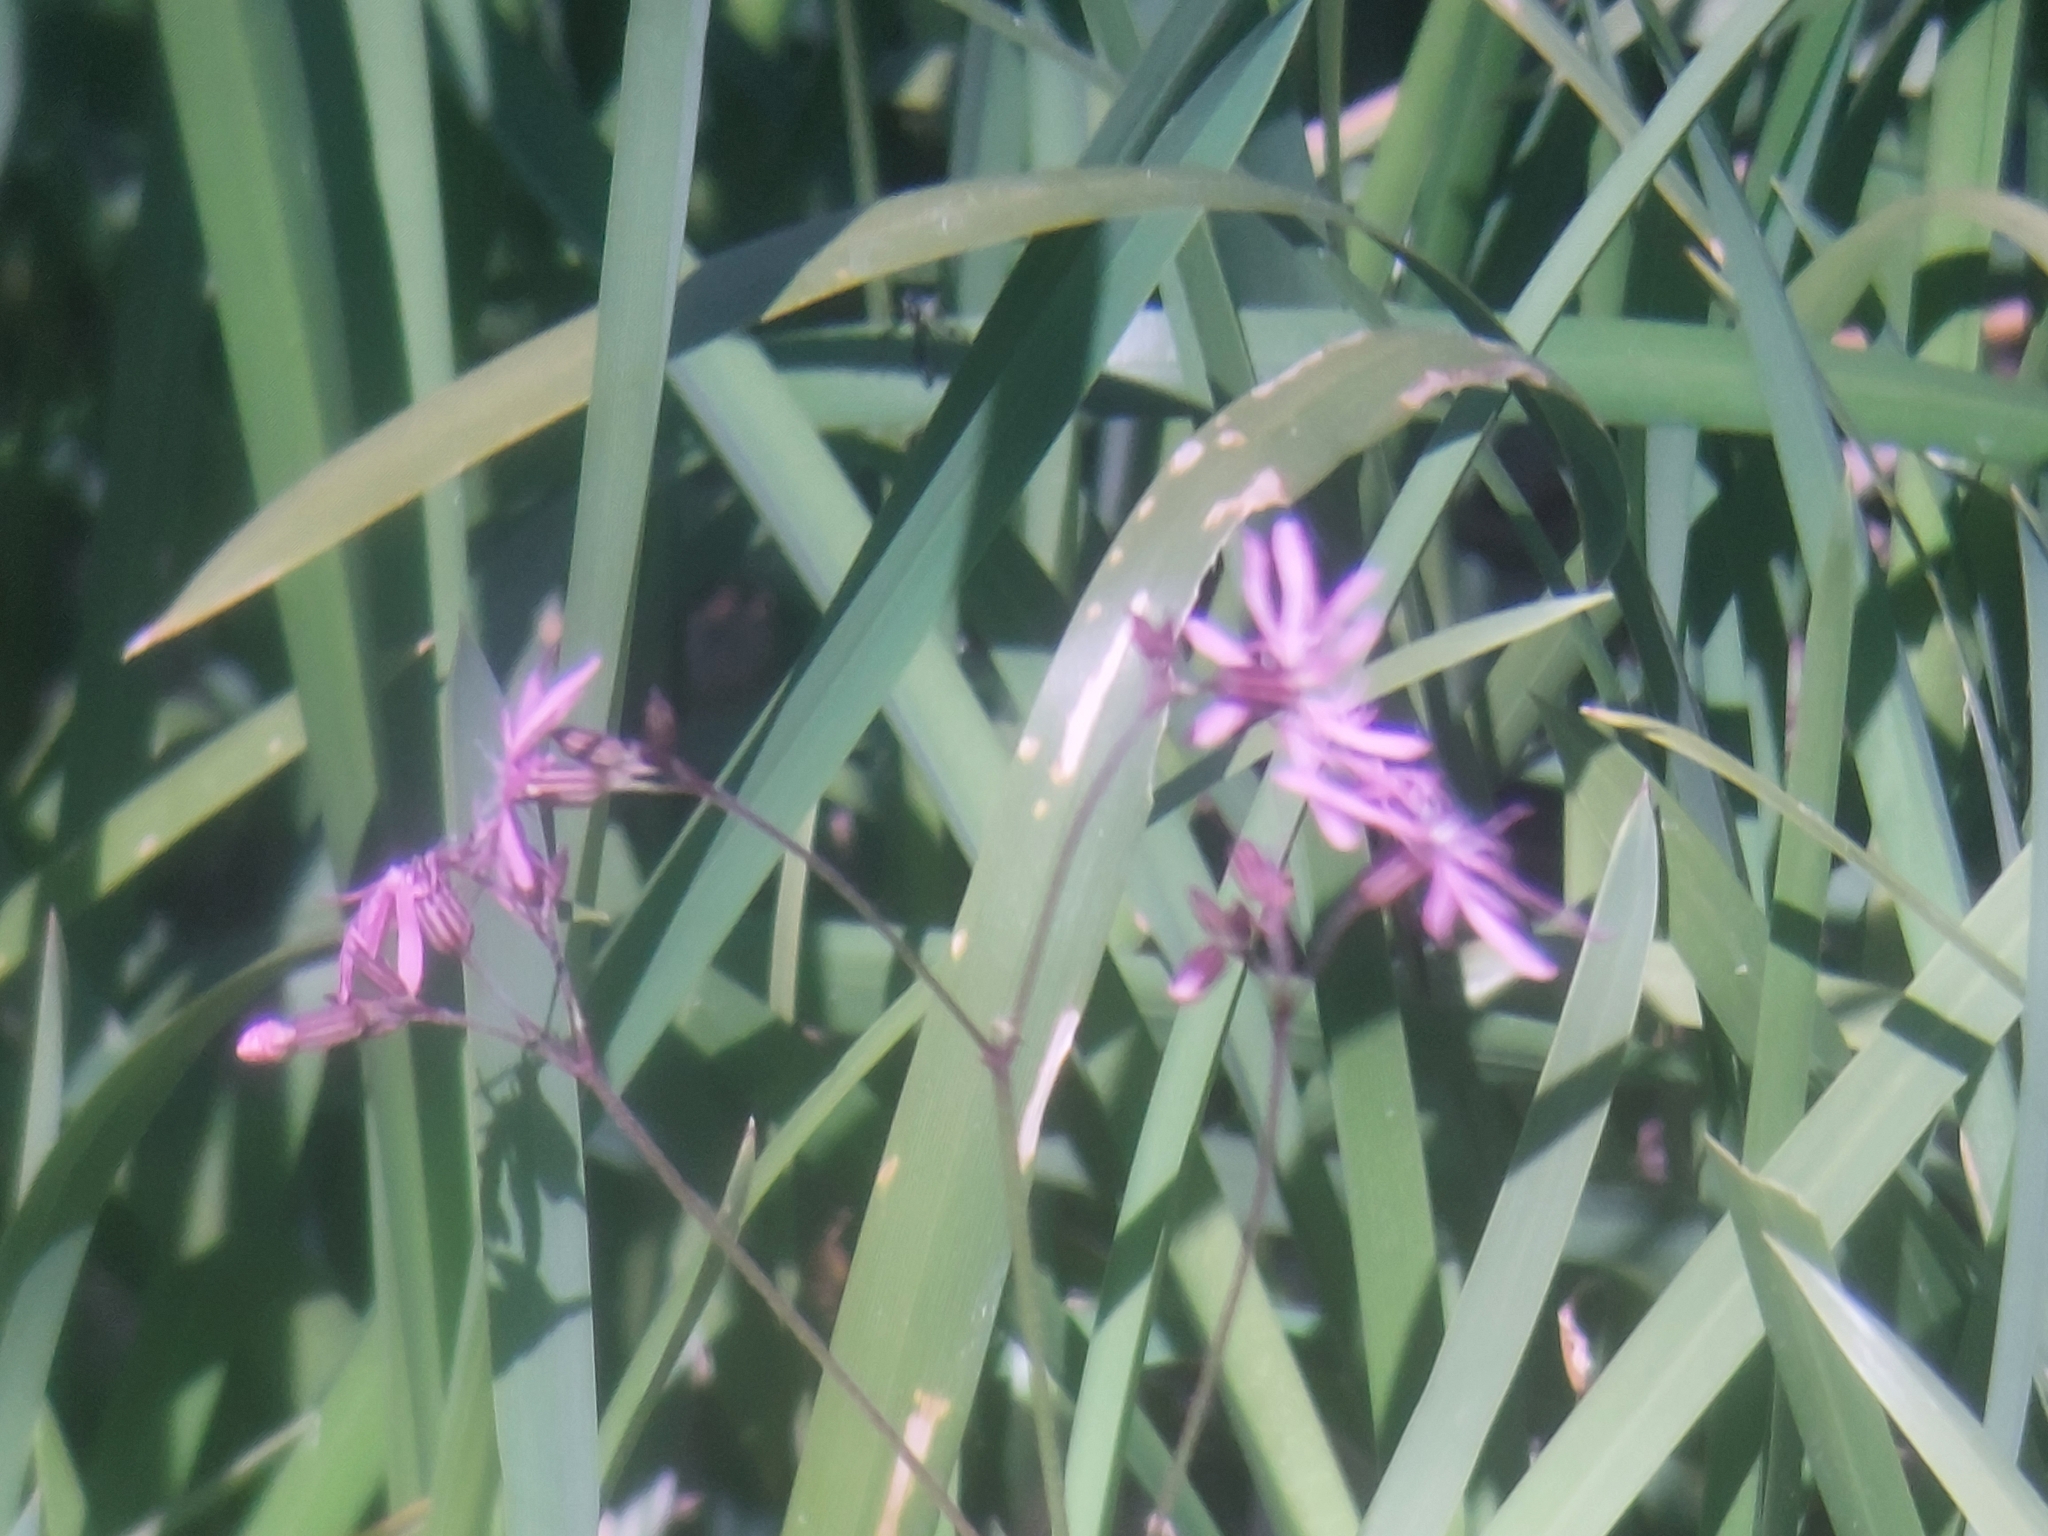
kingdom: Plantae
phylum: Tracheophyta
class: Magnoliopsida
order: Caryophyllales
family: Caryophyllaceae
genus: Silene
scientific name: Silene flos-cuculi
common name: Ragged-robin
